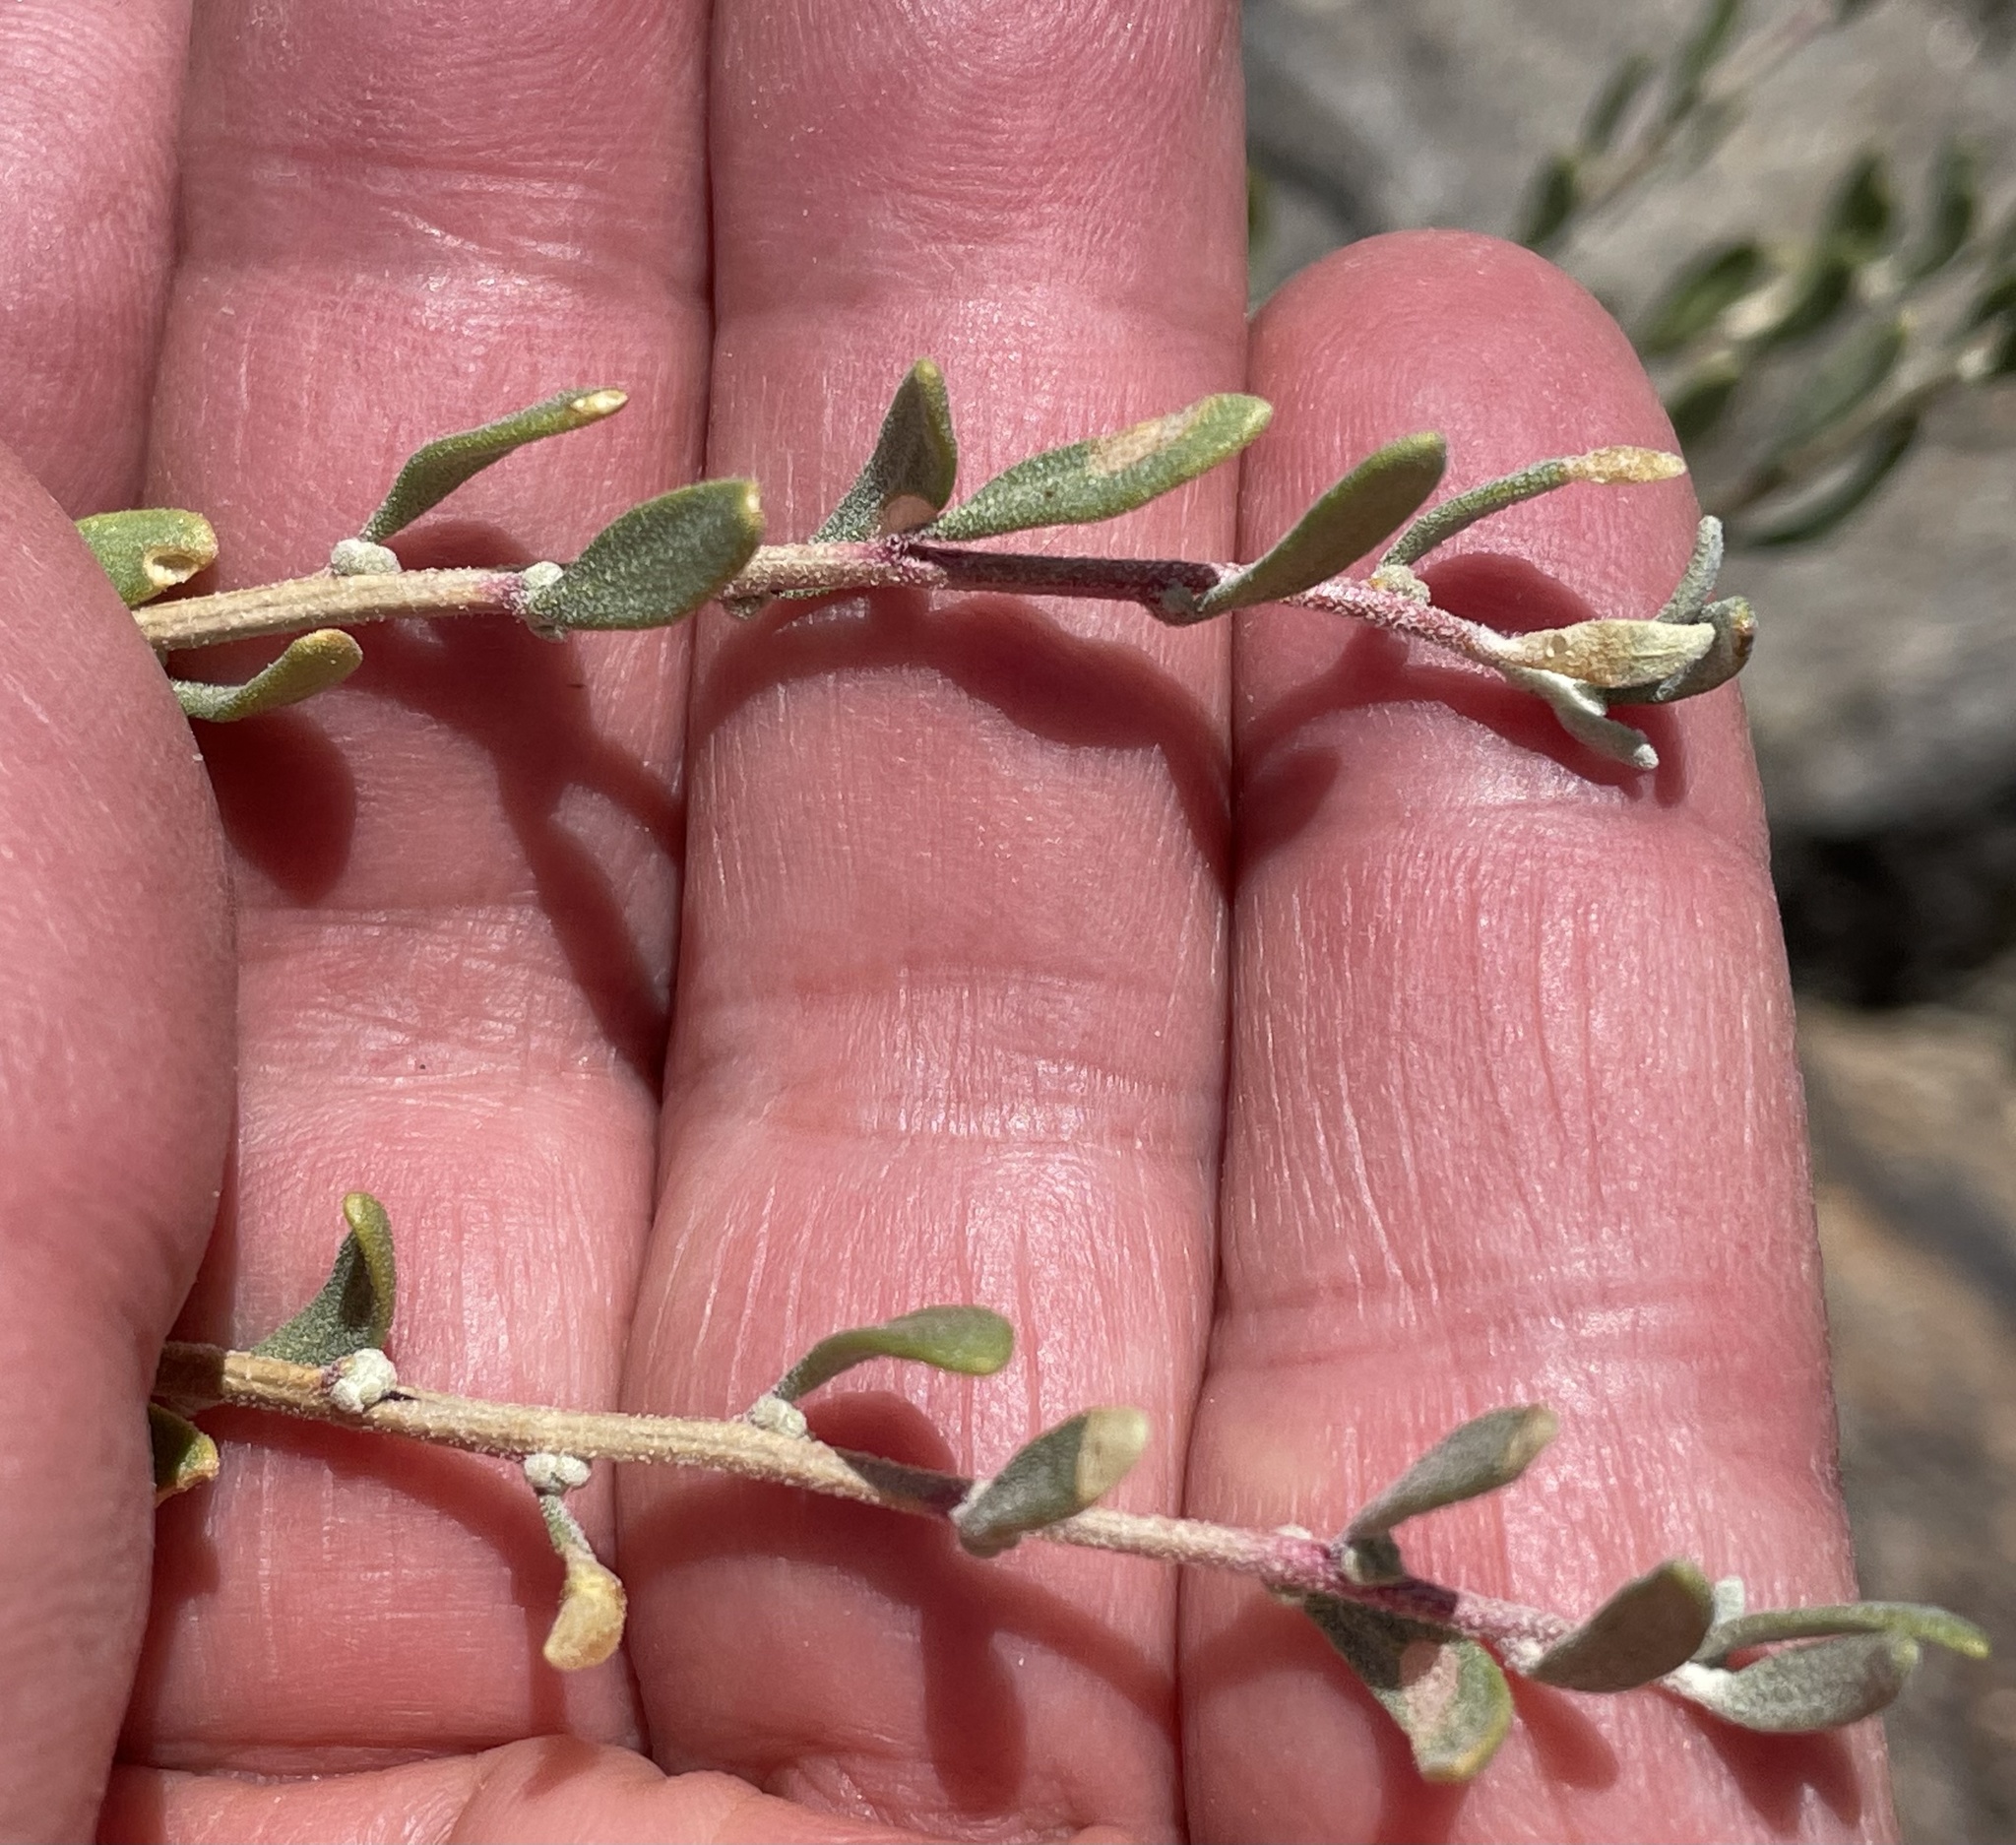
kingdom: Plantae
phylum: Tracheophyta
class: Magnoliopsida
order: Caryophyllales
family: Amaranthaceae
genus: Grayia
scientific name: Grayia spinosa
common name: Spiny hopsage
